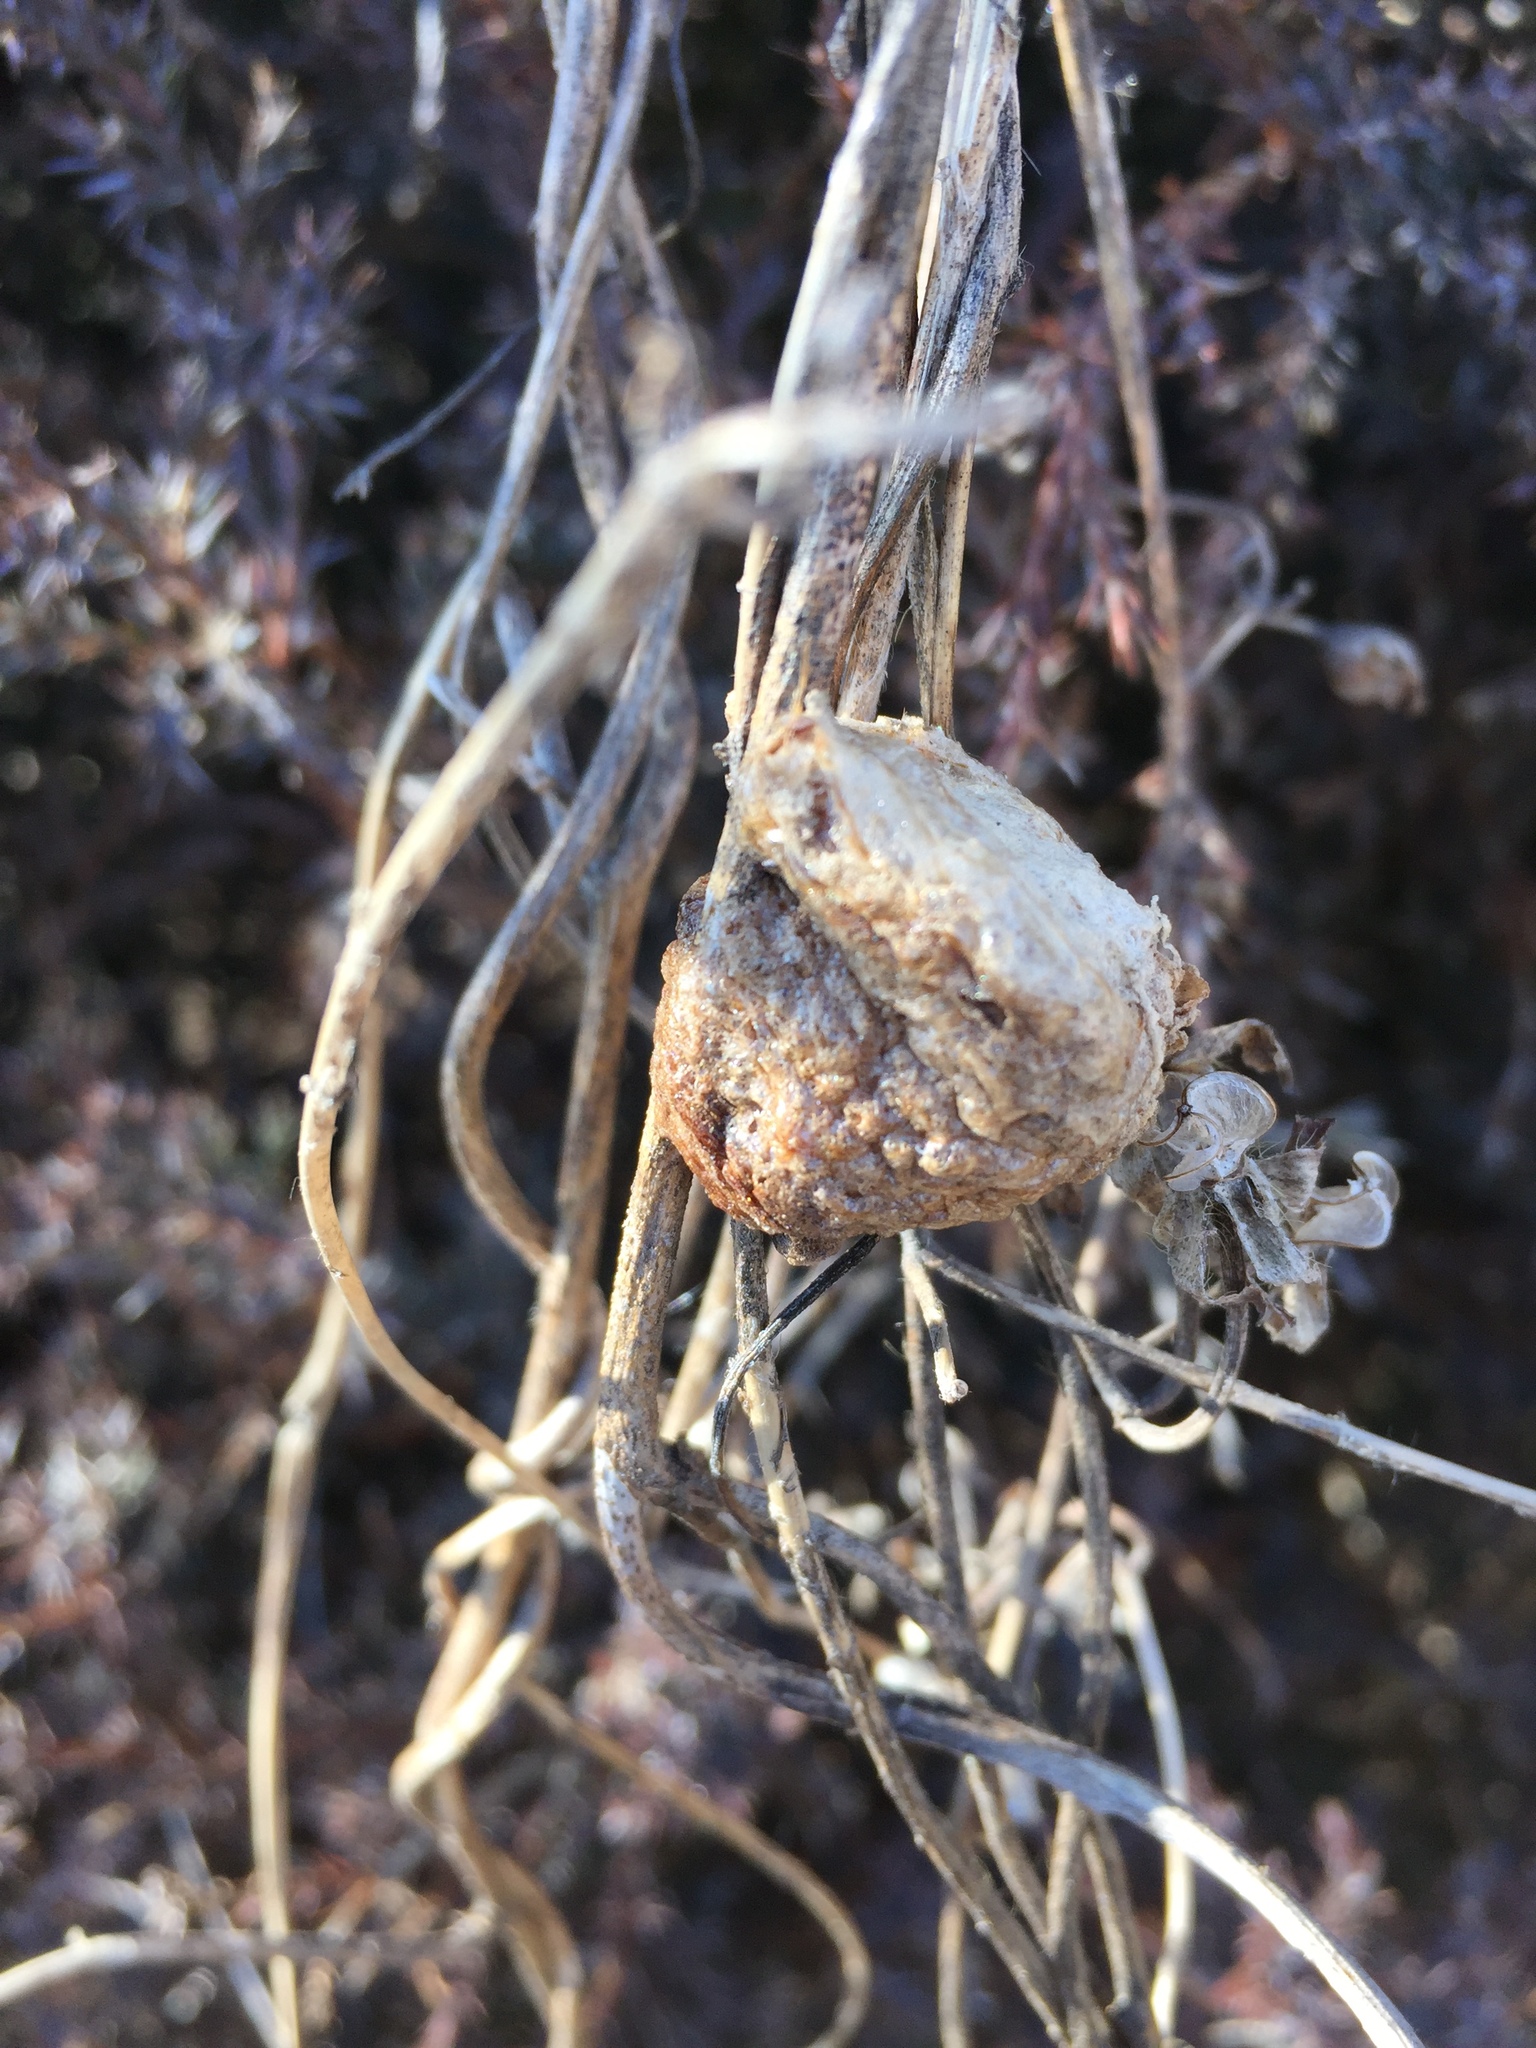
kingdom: Animalia
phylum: Arthropoda
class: Insecta
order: Mantodea
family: Mantidae
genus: Tenodera
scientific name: Tenodera sinensis
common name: Chinese mantis
